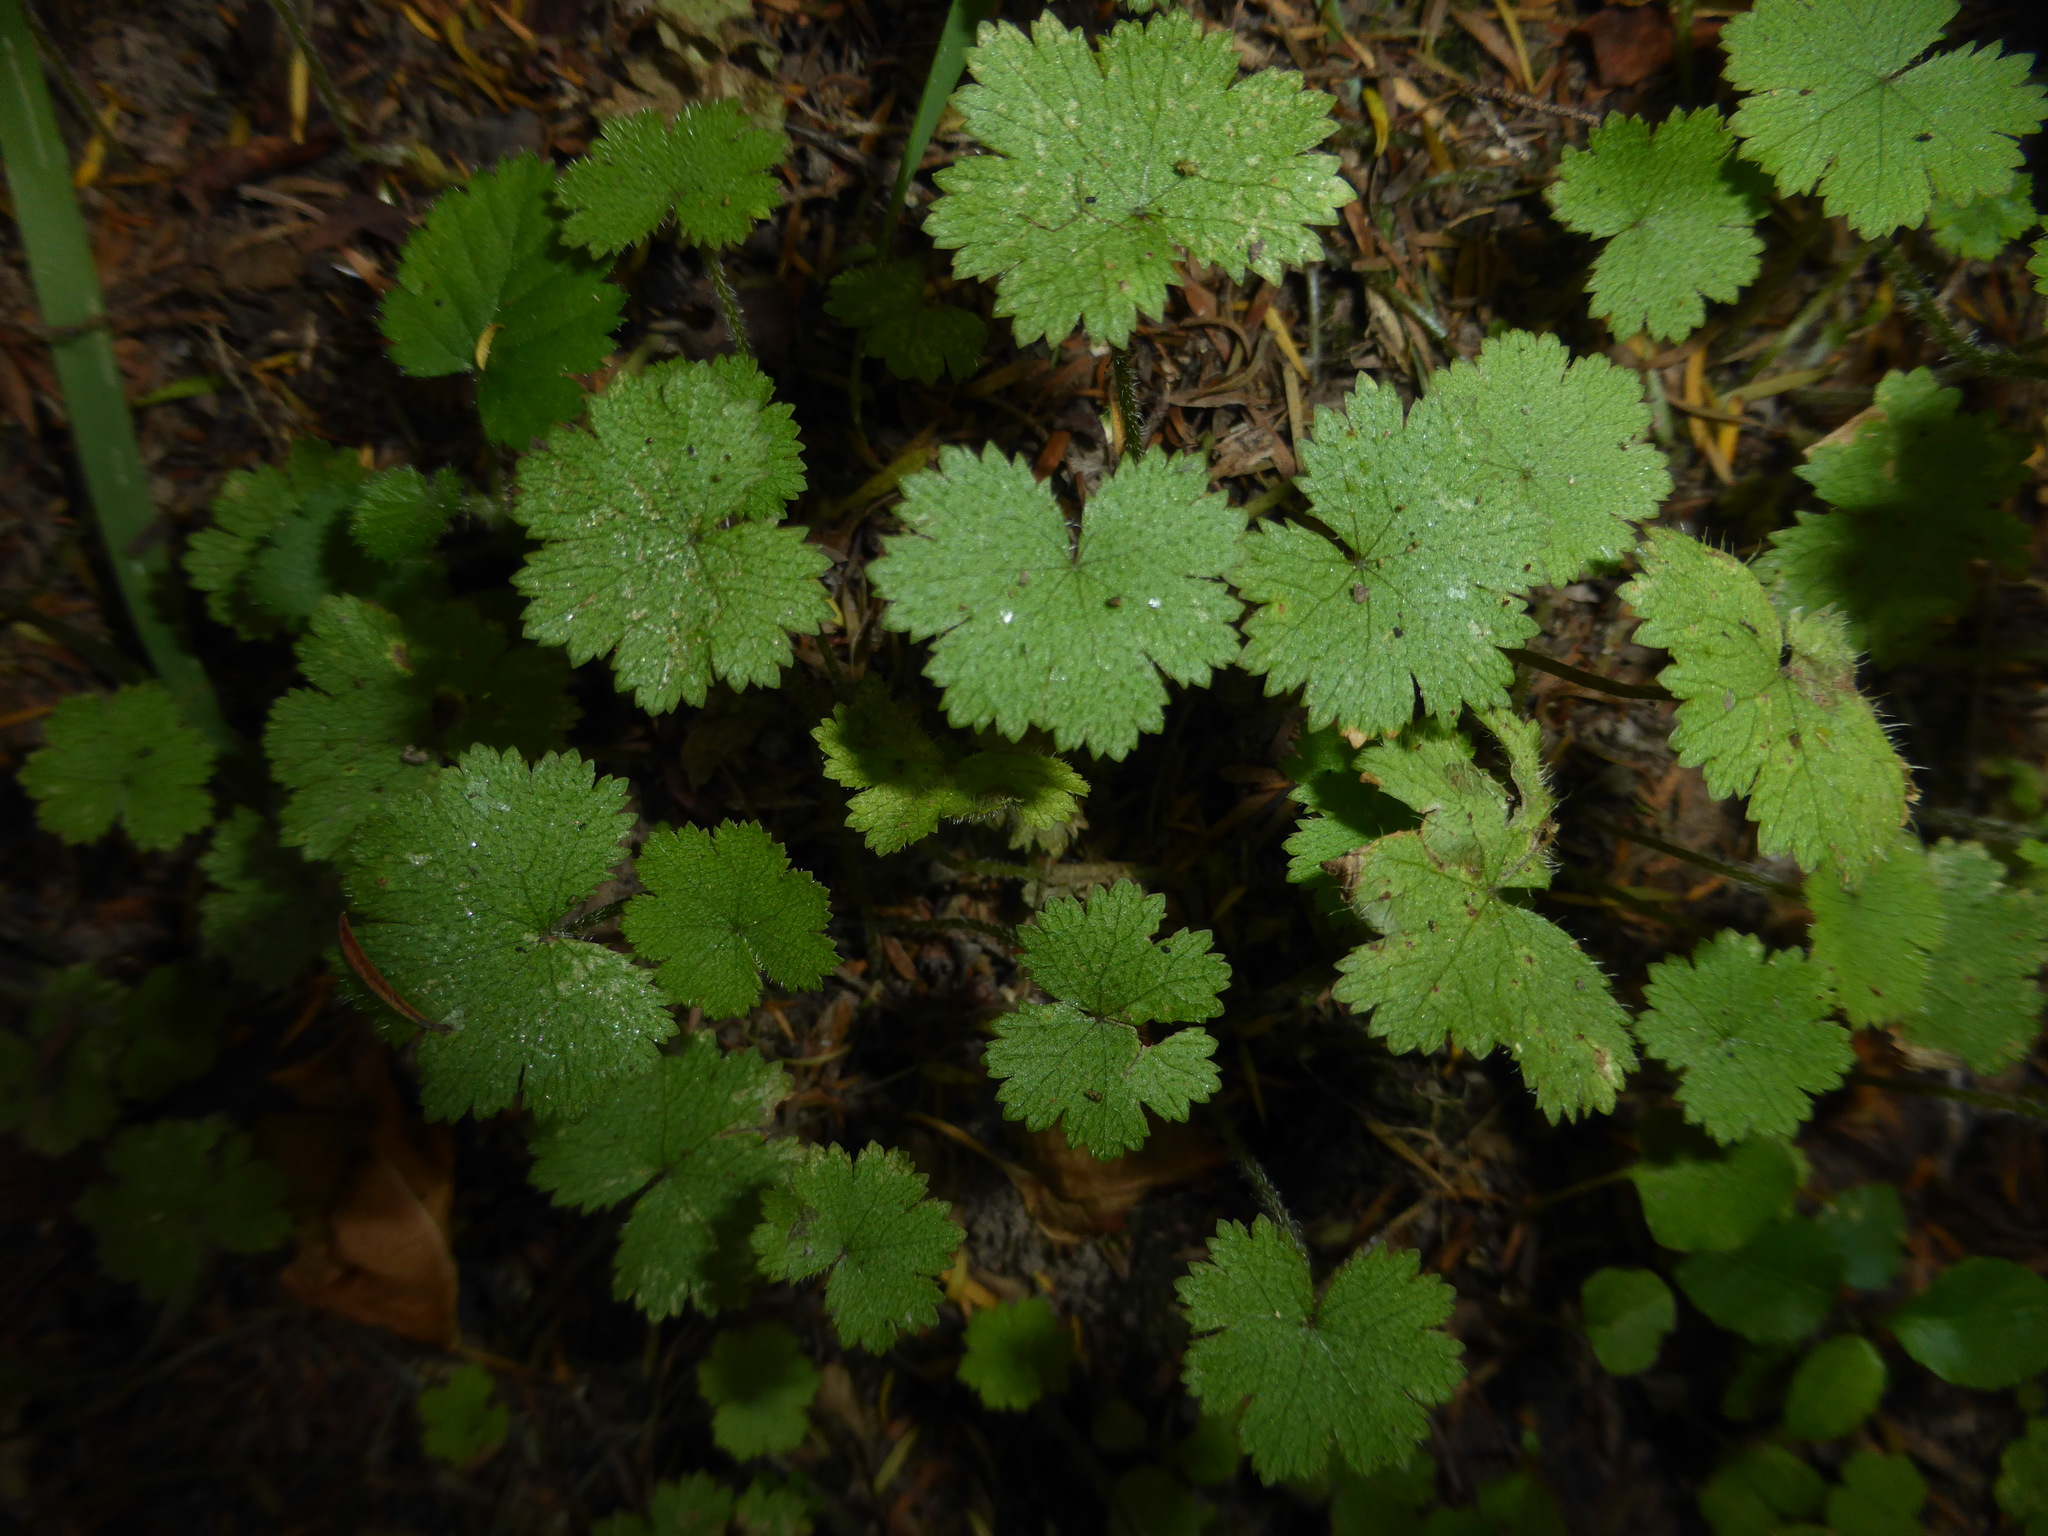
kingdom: Plantae
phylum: Tracheophyta
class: Magnoliopsida
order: Apiales
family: Araliaceae
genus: Hydrocotyle
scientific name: Hydrocotyle moschata
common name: Hairy pennywort
